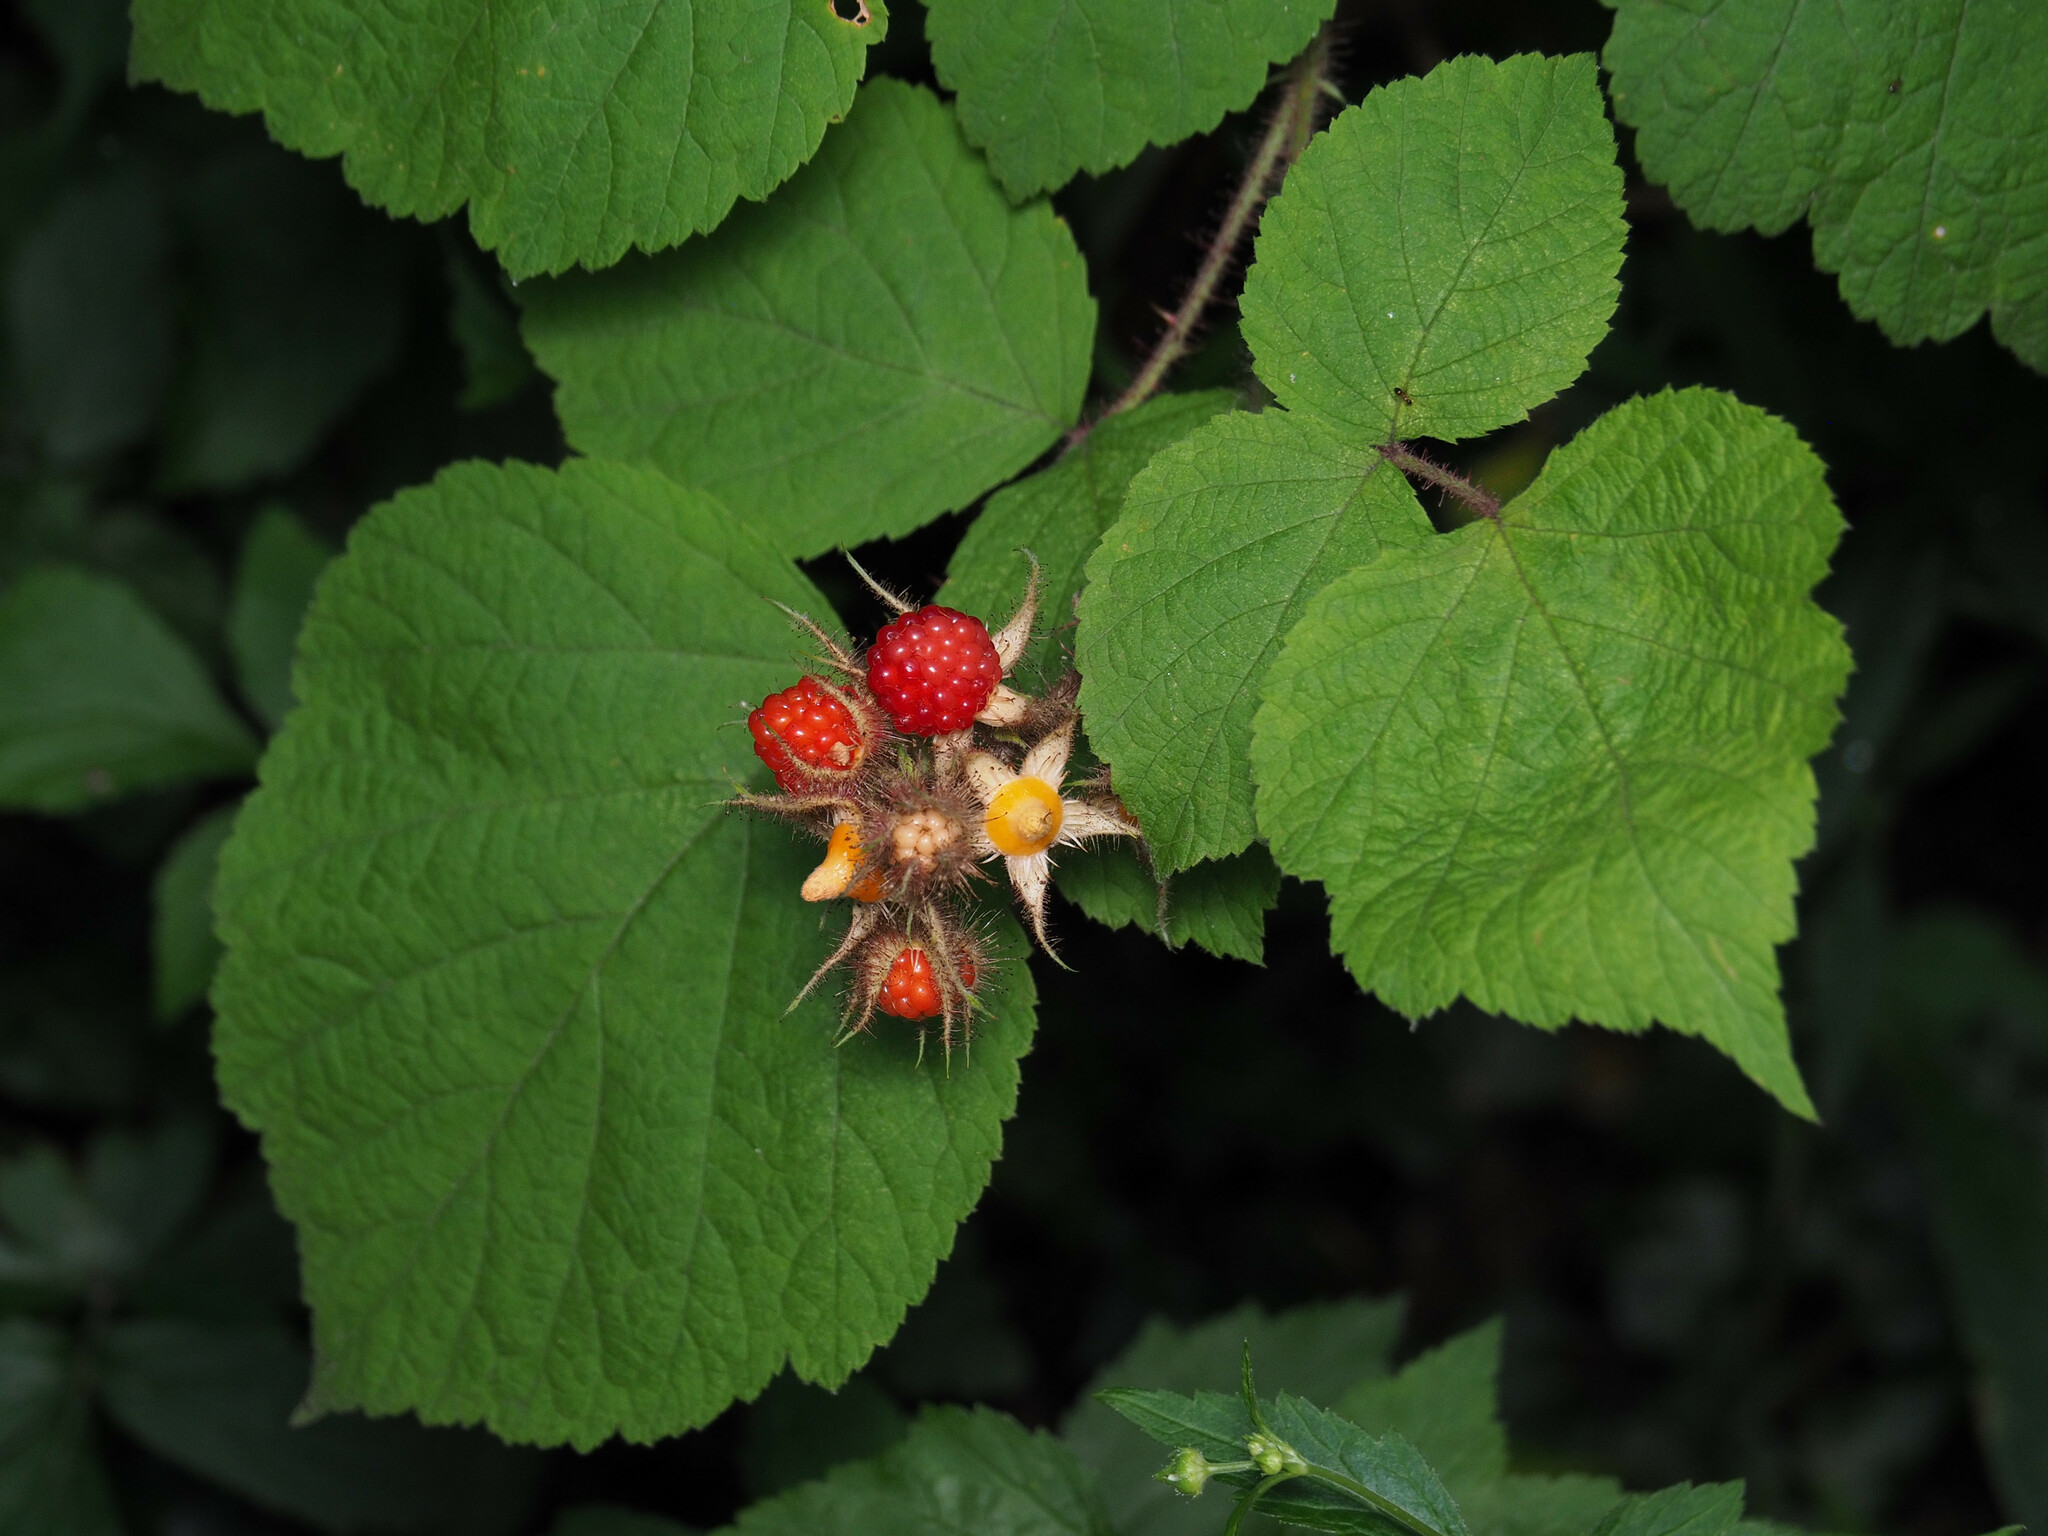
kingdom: Plantae
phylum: Tracheophyta
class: Magnoliopsida
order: Rosales
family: Rosaceae
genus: Rubus
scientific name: Rubus phoenicolasius
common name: Japanese wineberry
